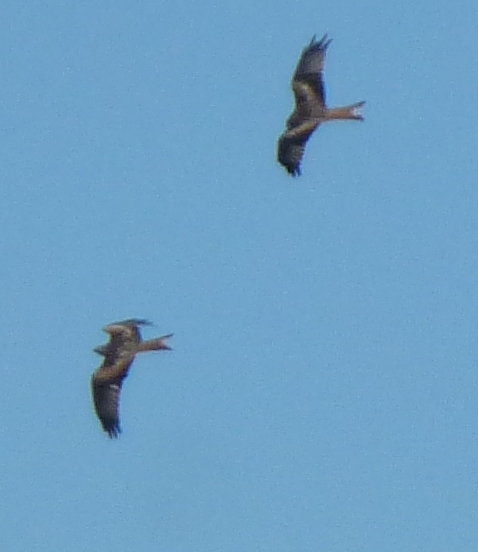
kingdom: Animalia
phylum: Chordata
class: Aves
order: Accipitriformes
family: Accipitridae
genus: Milvus
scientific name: Milvus milvus
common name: Red kite
